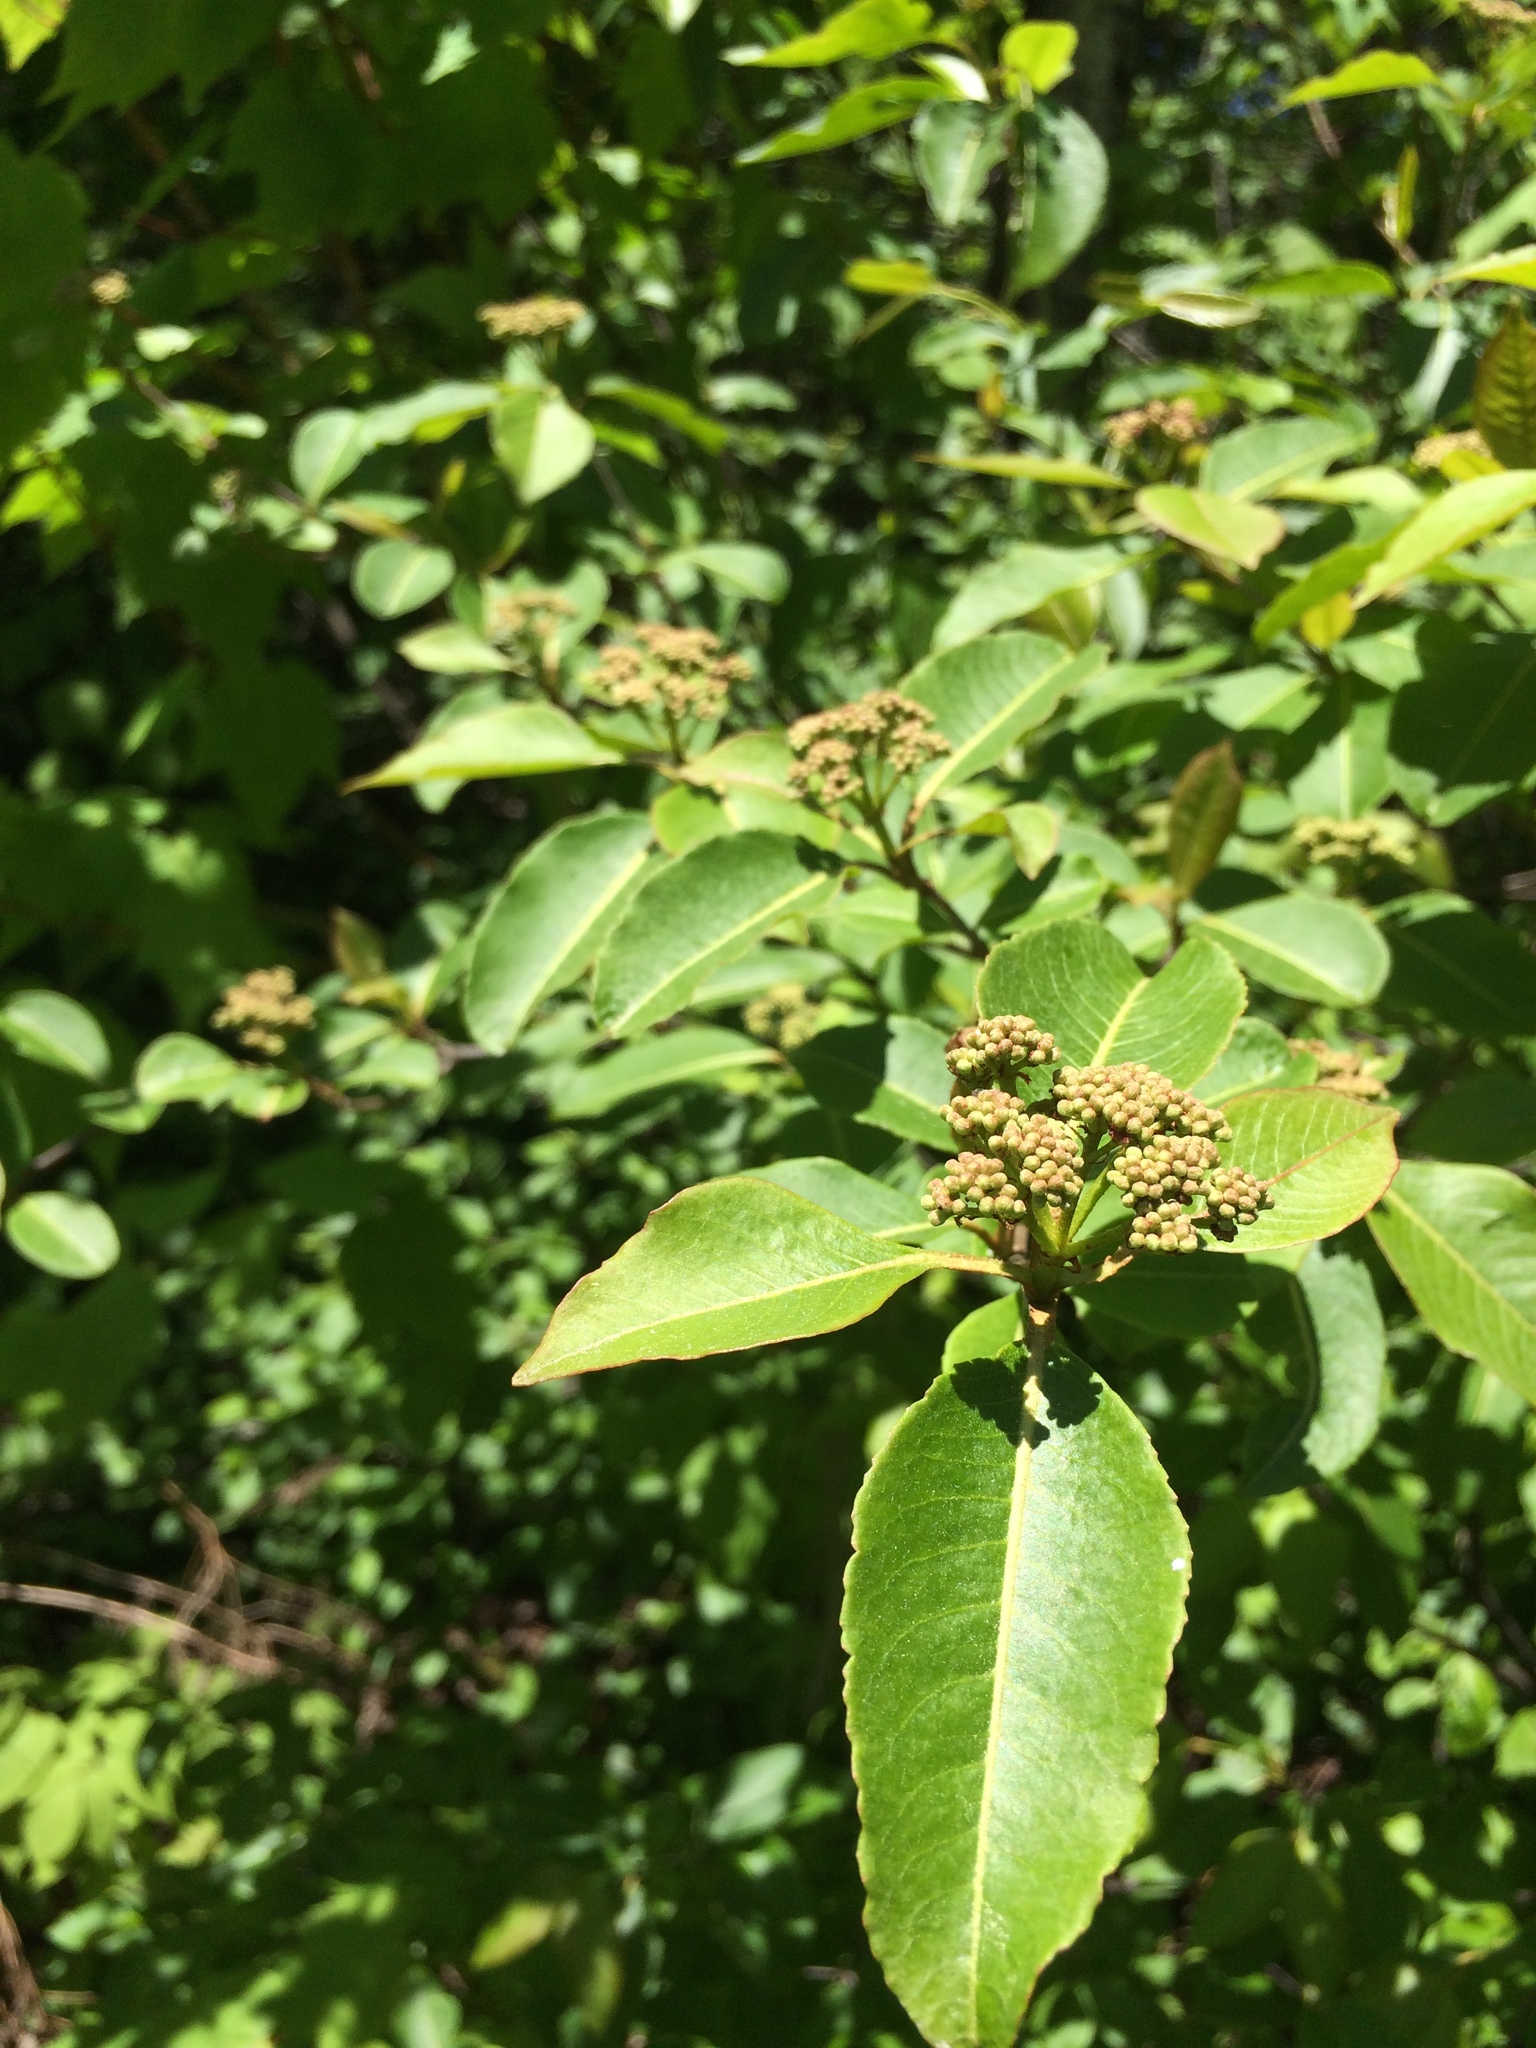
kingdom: Plantae
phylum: Tracheophyta
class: Magnoliopsida
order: Dipsacales
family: Viburnaceae
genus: Viburnum
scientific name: Viburnum cassinoides
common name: Swamp haw
